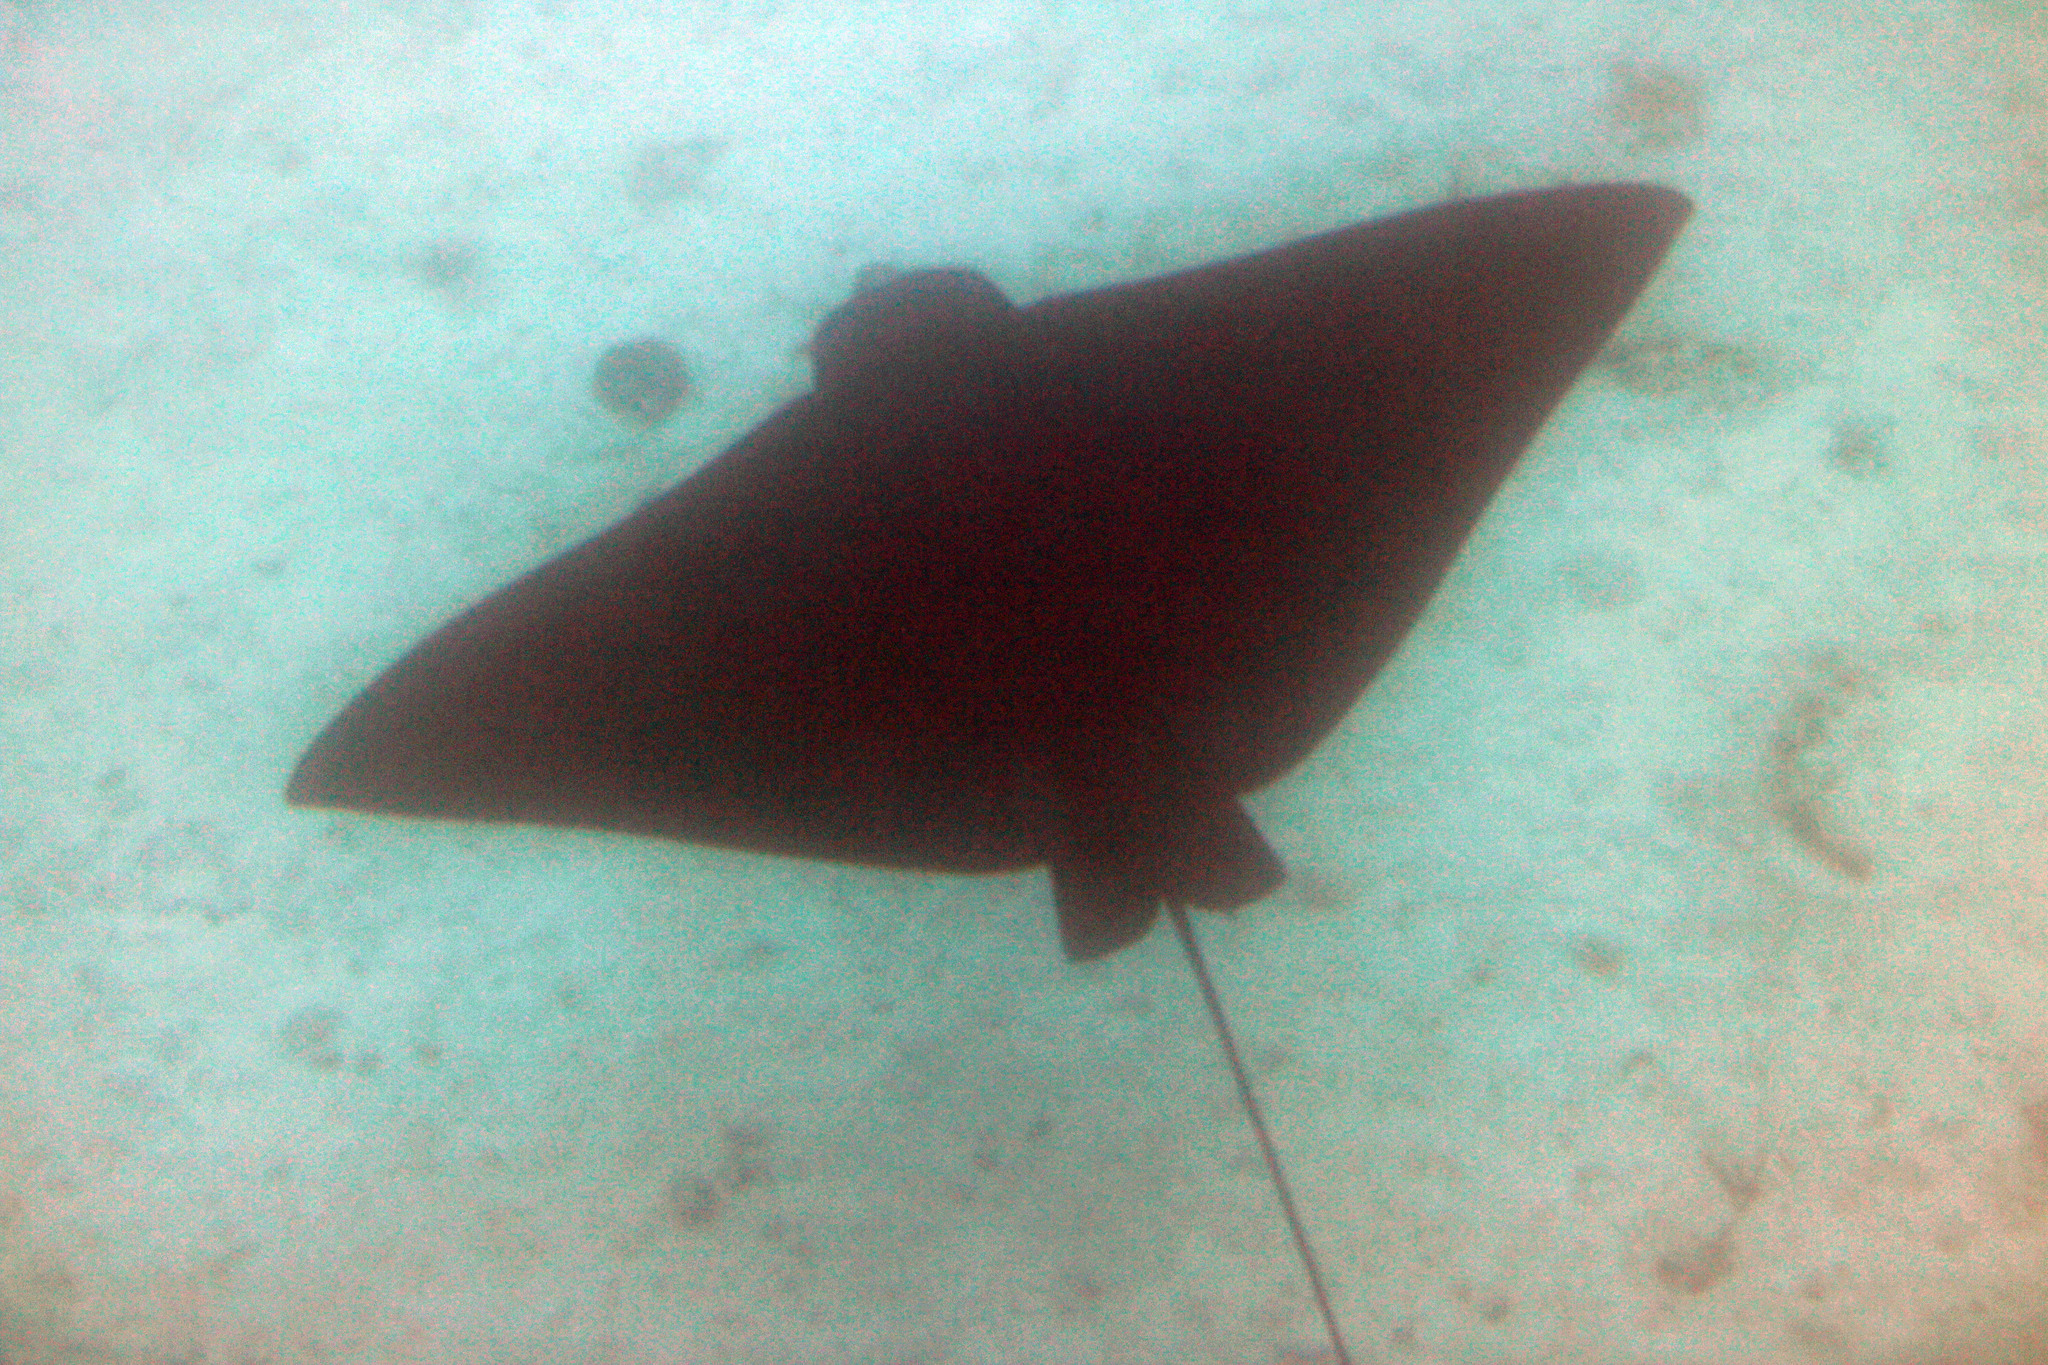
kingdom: Animalia
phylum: Chordata
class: Elasmobranchii
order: Myliobatiformes
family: Myliobatidae
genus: Aetobatus
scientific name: Aetobatus ocellatus
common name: Ocellated eagle ray
